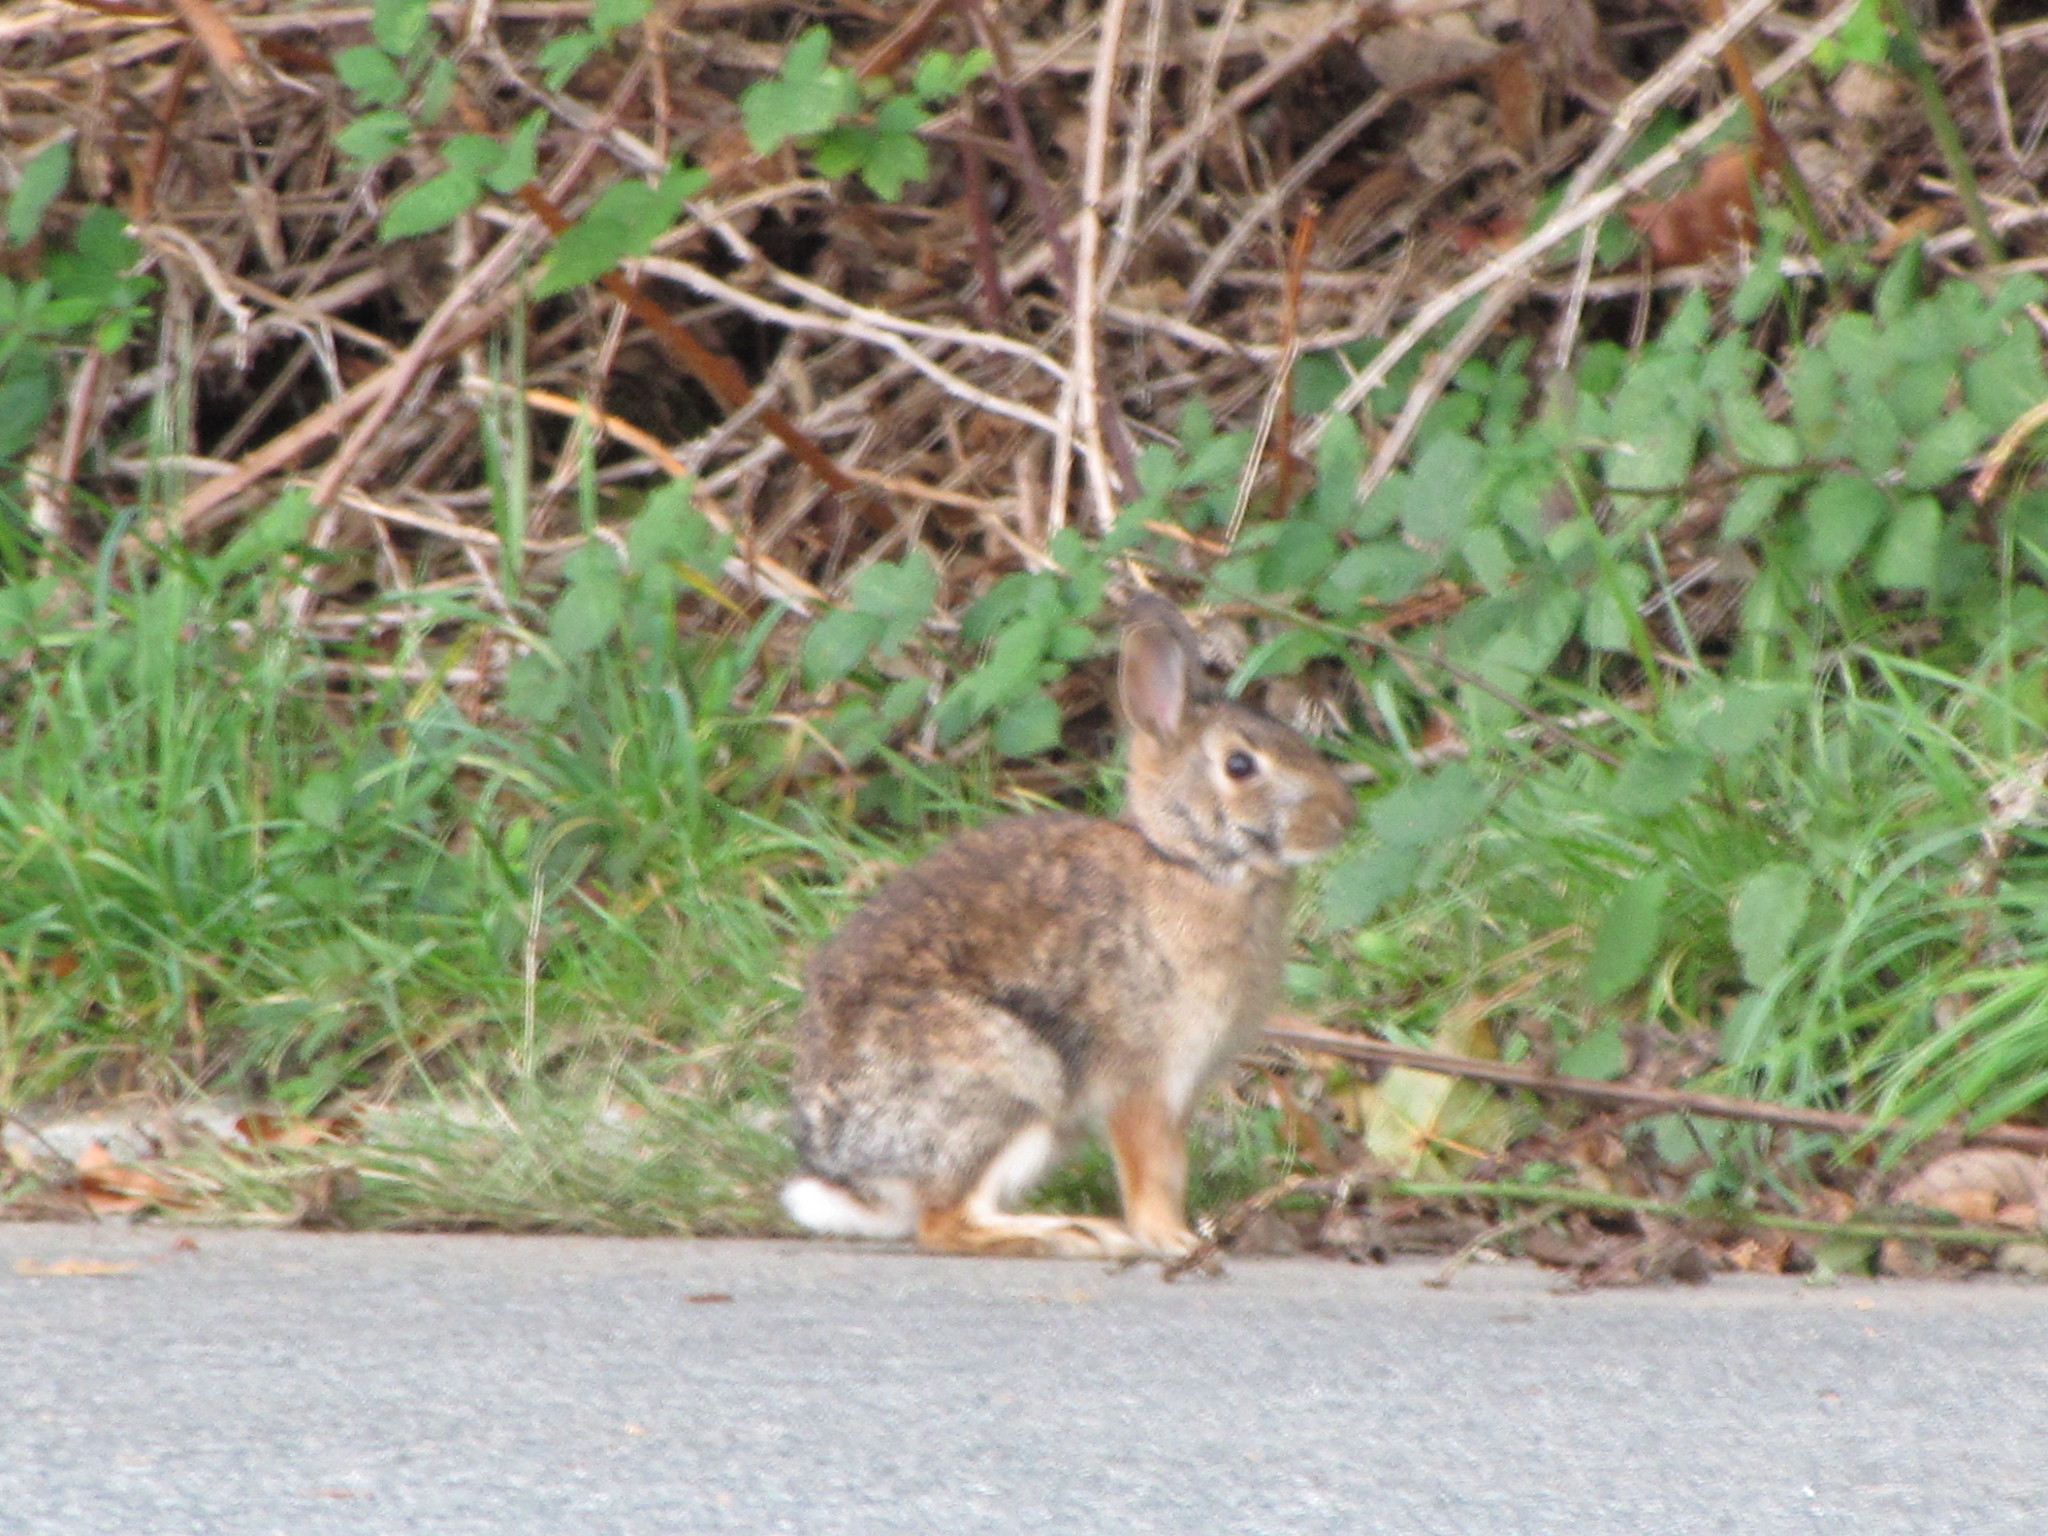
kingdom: Animalia
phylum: Chordata
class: Mammalia
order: Lagomorpha
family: Leporidae
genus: Sylvilagus
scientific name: Sylvilagus floridanus
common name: Eastern cottontail
